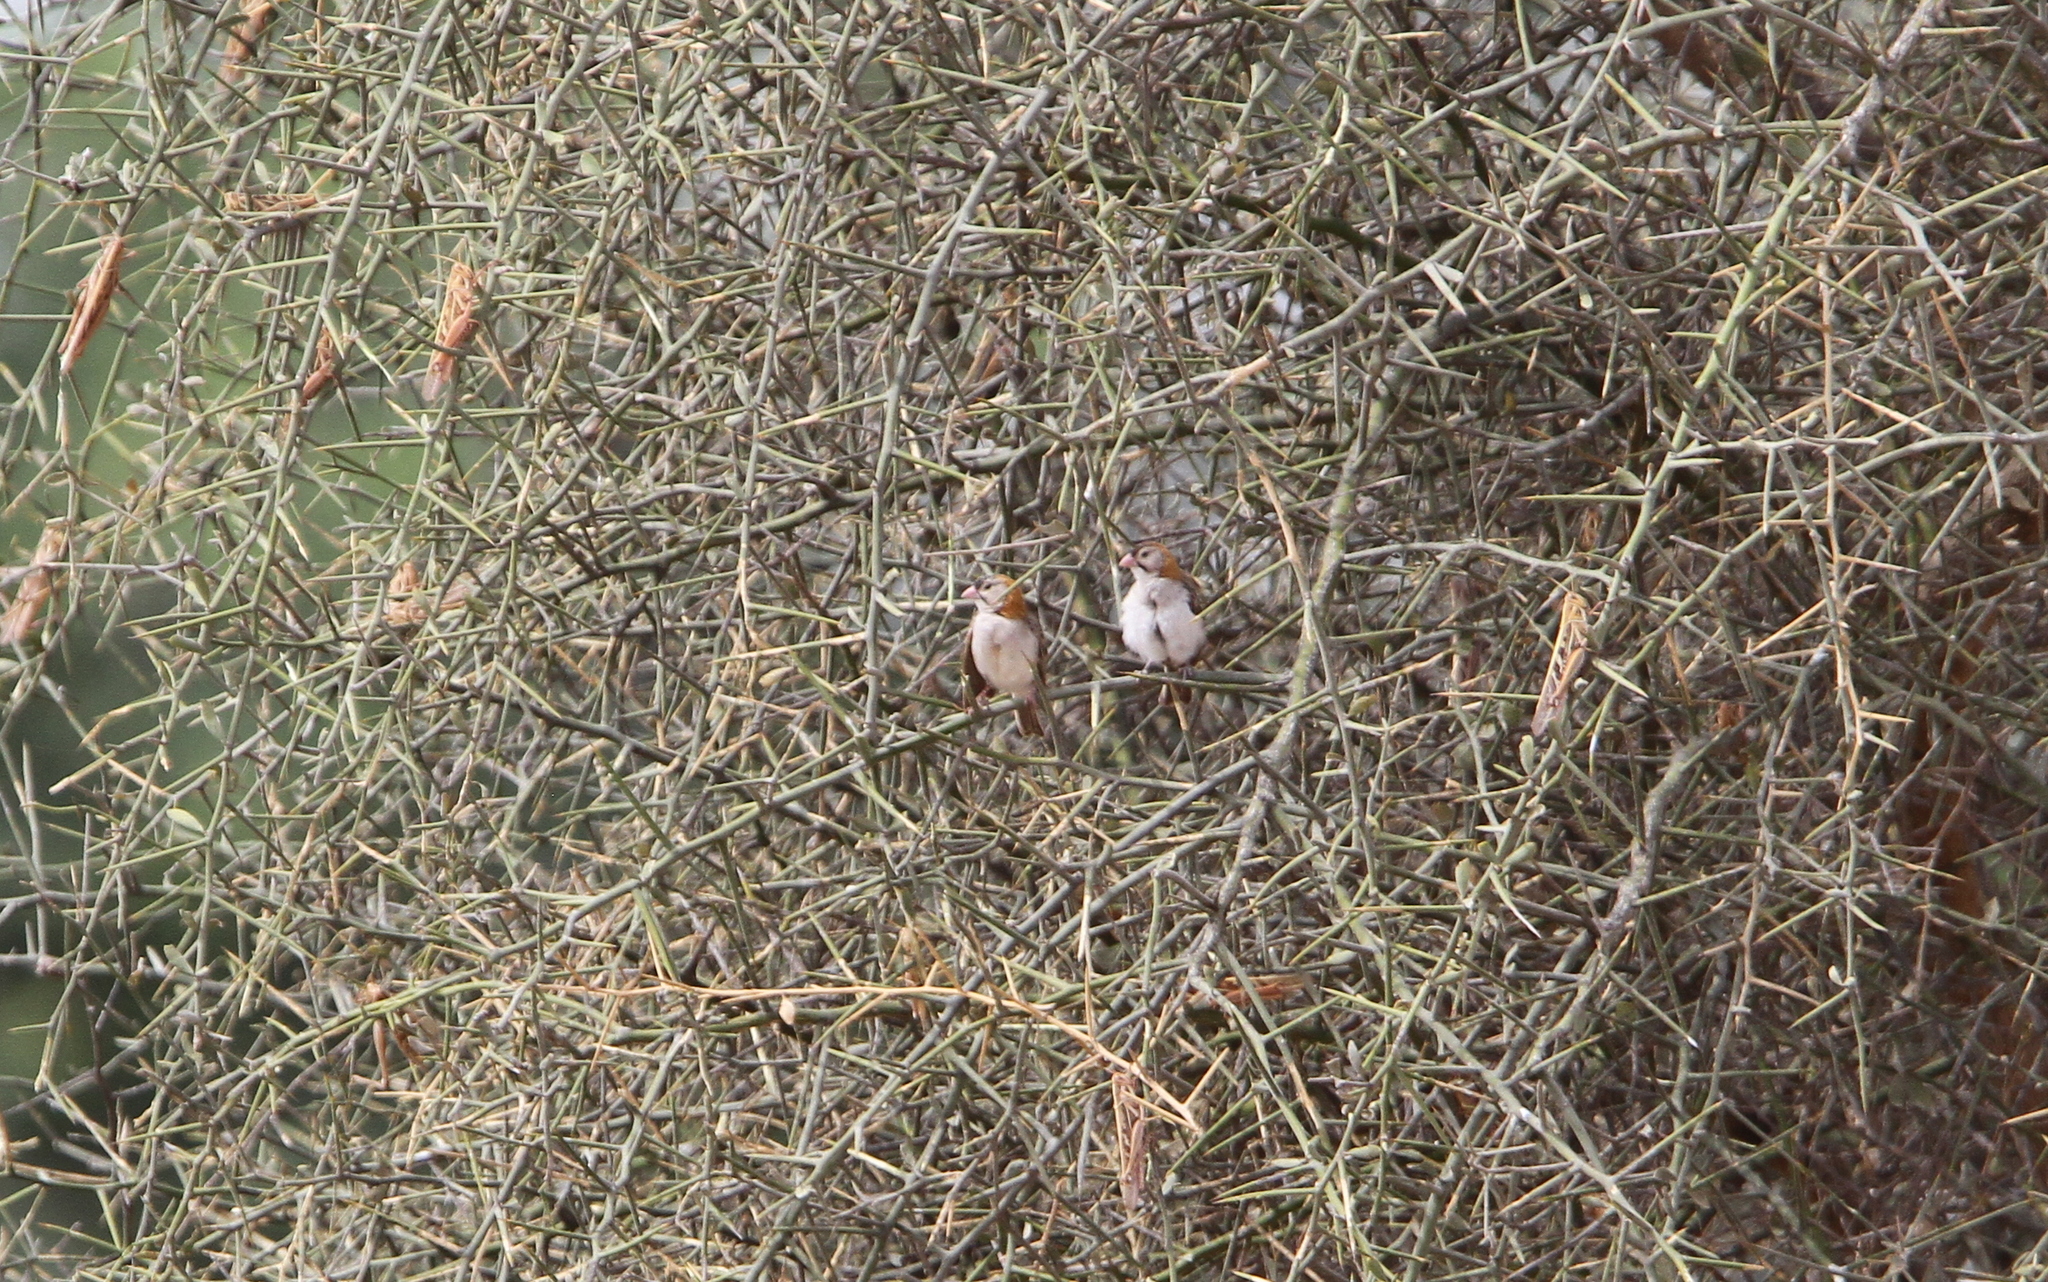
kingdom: Animalia
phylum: Chordata
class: Aves
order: Passeriformes
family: Ploceidae
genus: Sporopipes
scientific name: Sporopipes frontalis
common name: Speckle-fronted weaver
